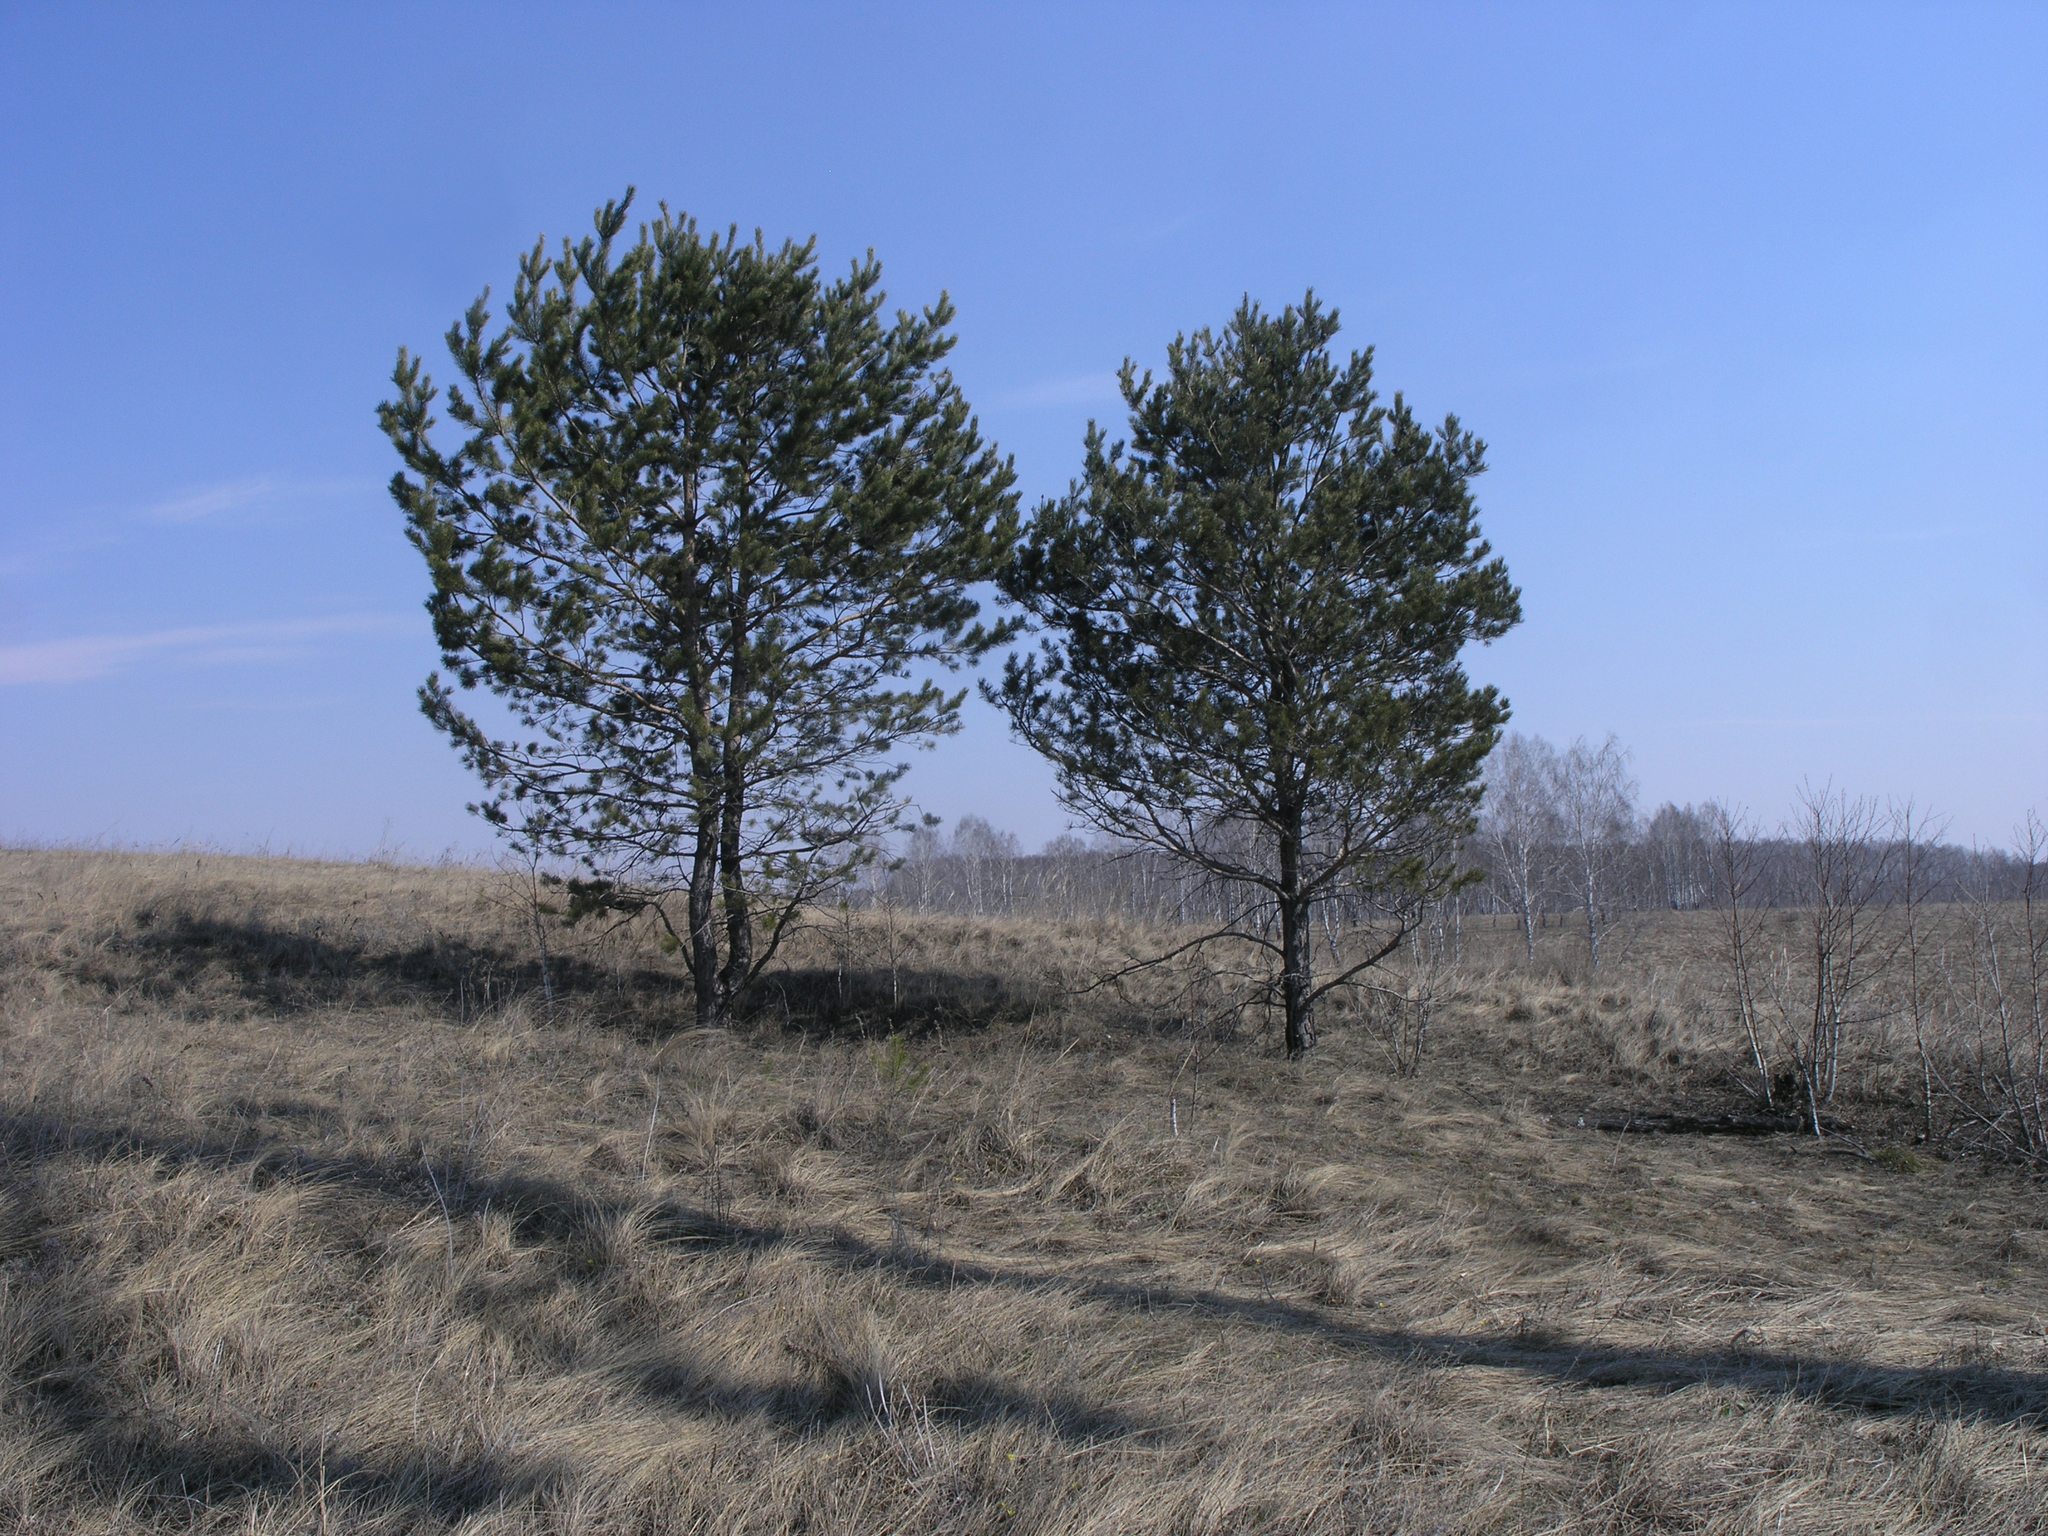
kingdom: Plantae
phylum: Tracheophyta
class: Pinopsida
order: Pinales
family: Pinaceae
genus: Pinus
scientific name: Pinus sylvestris
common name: Scots pine
